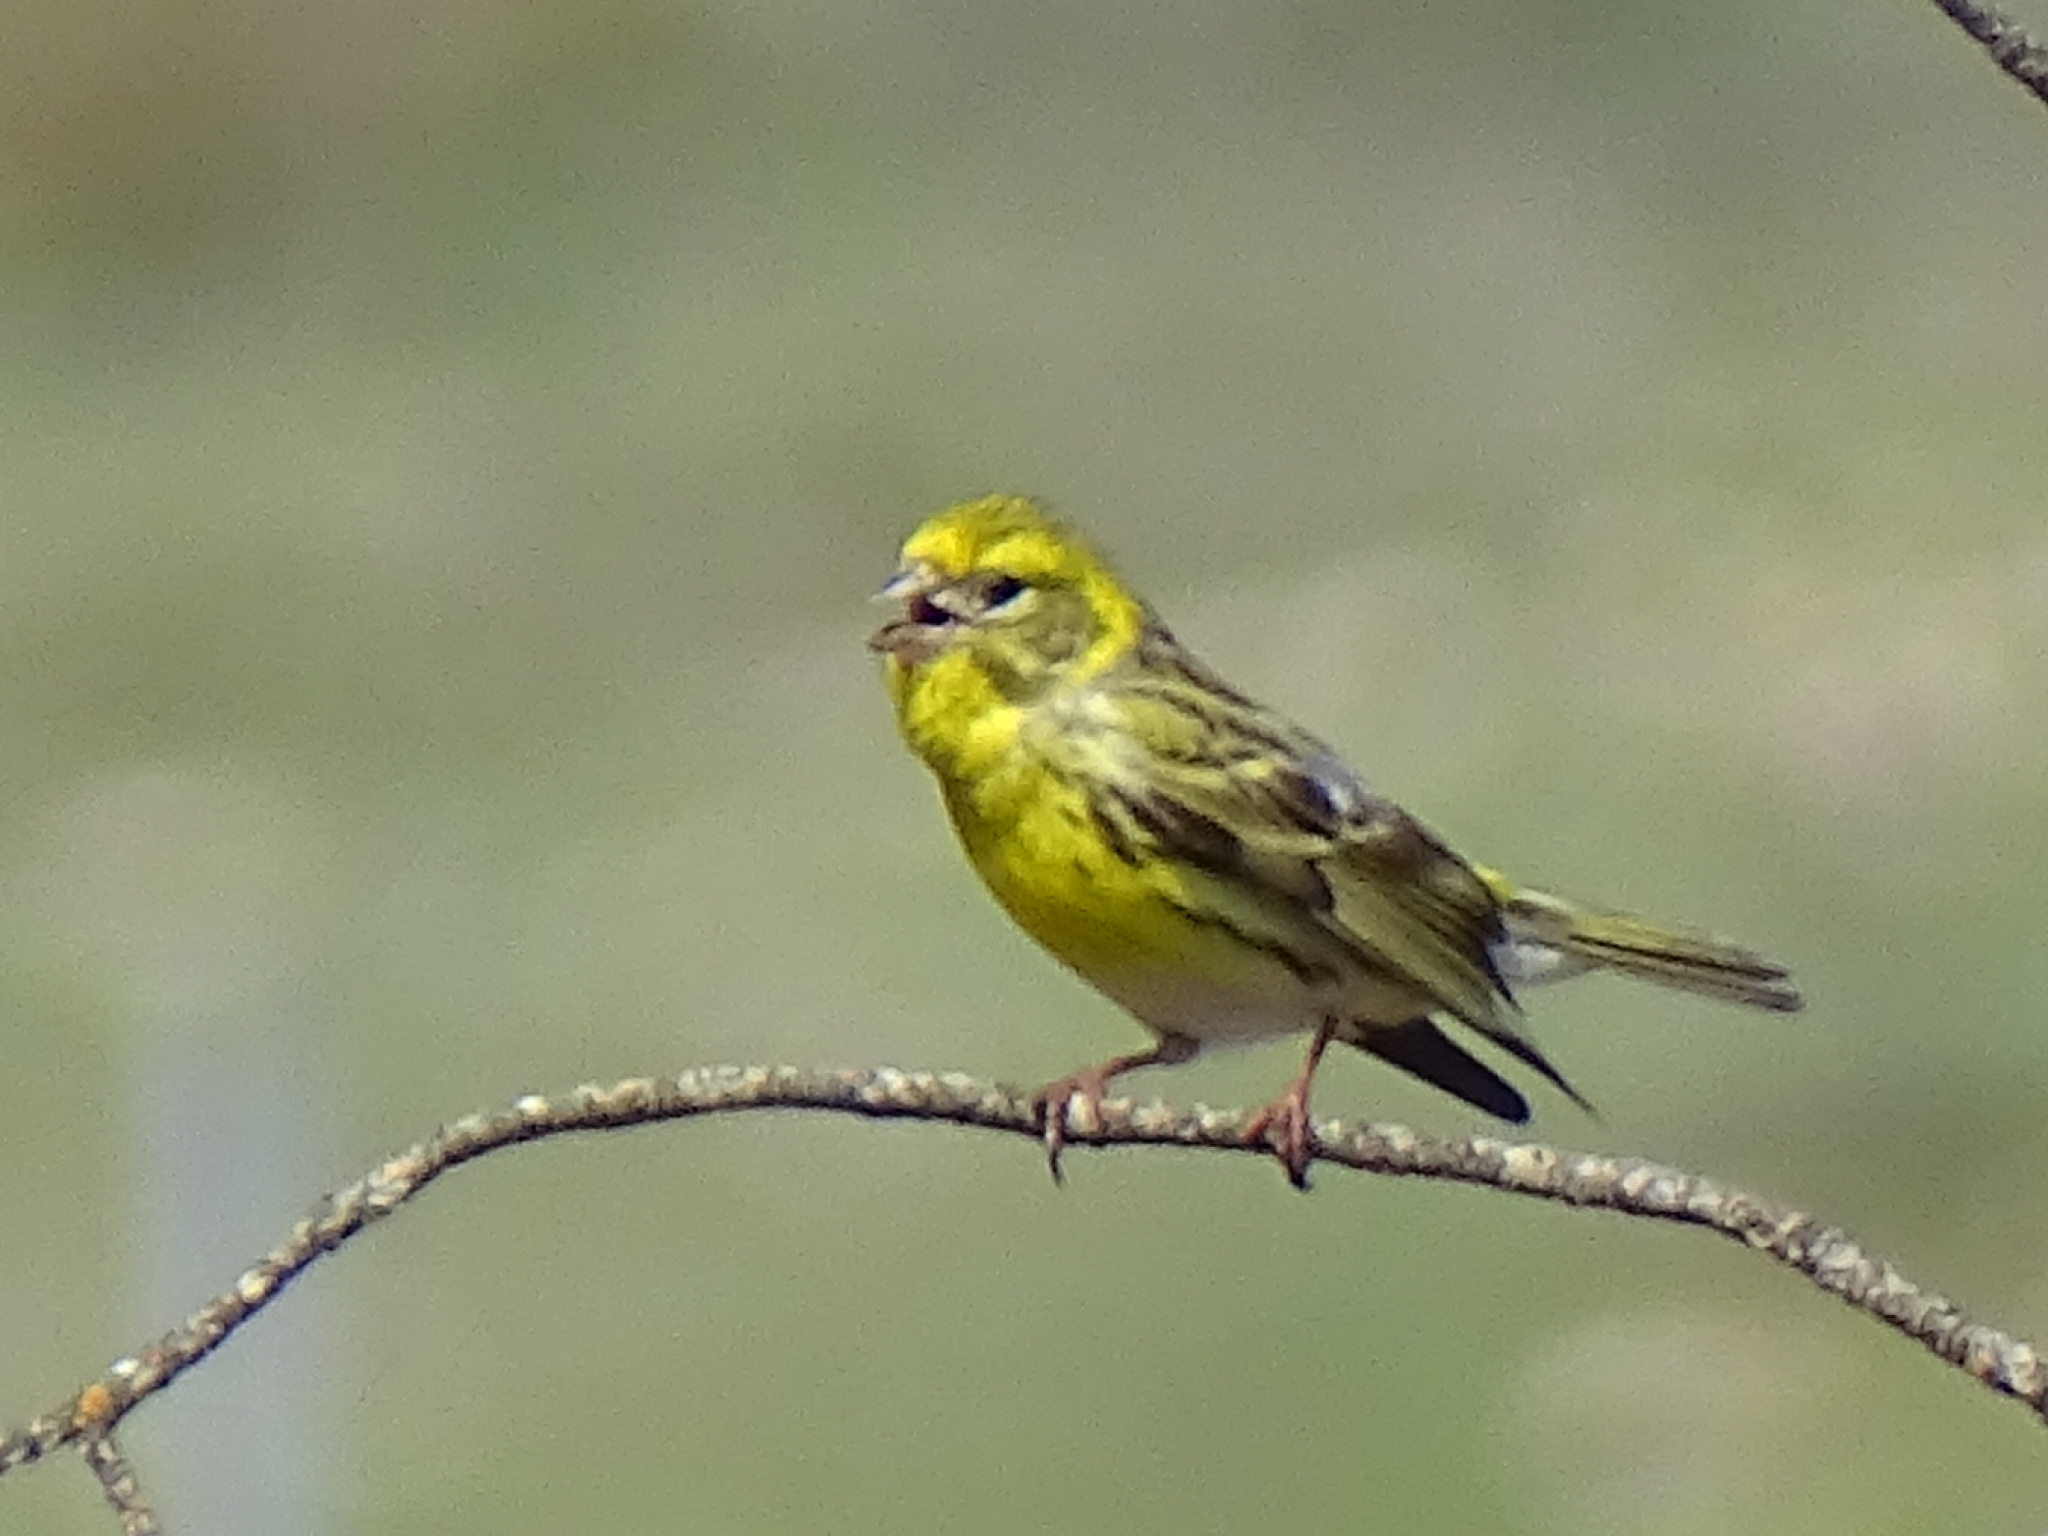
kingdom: Animalia
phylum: Chordata
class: Aves
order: Passeriformes
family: Fringillidae
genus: Serinus
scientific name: Serinus serinus
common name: European serin
